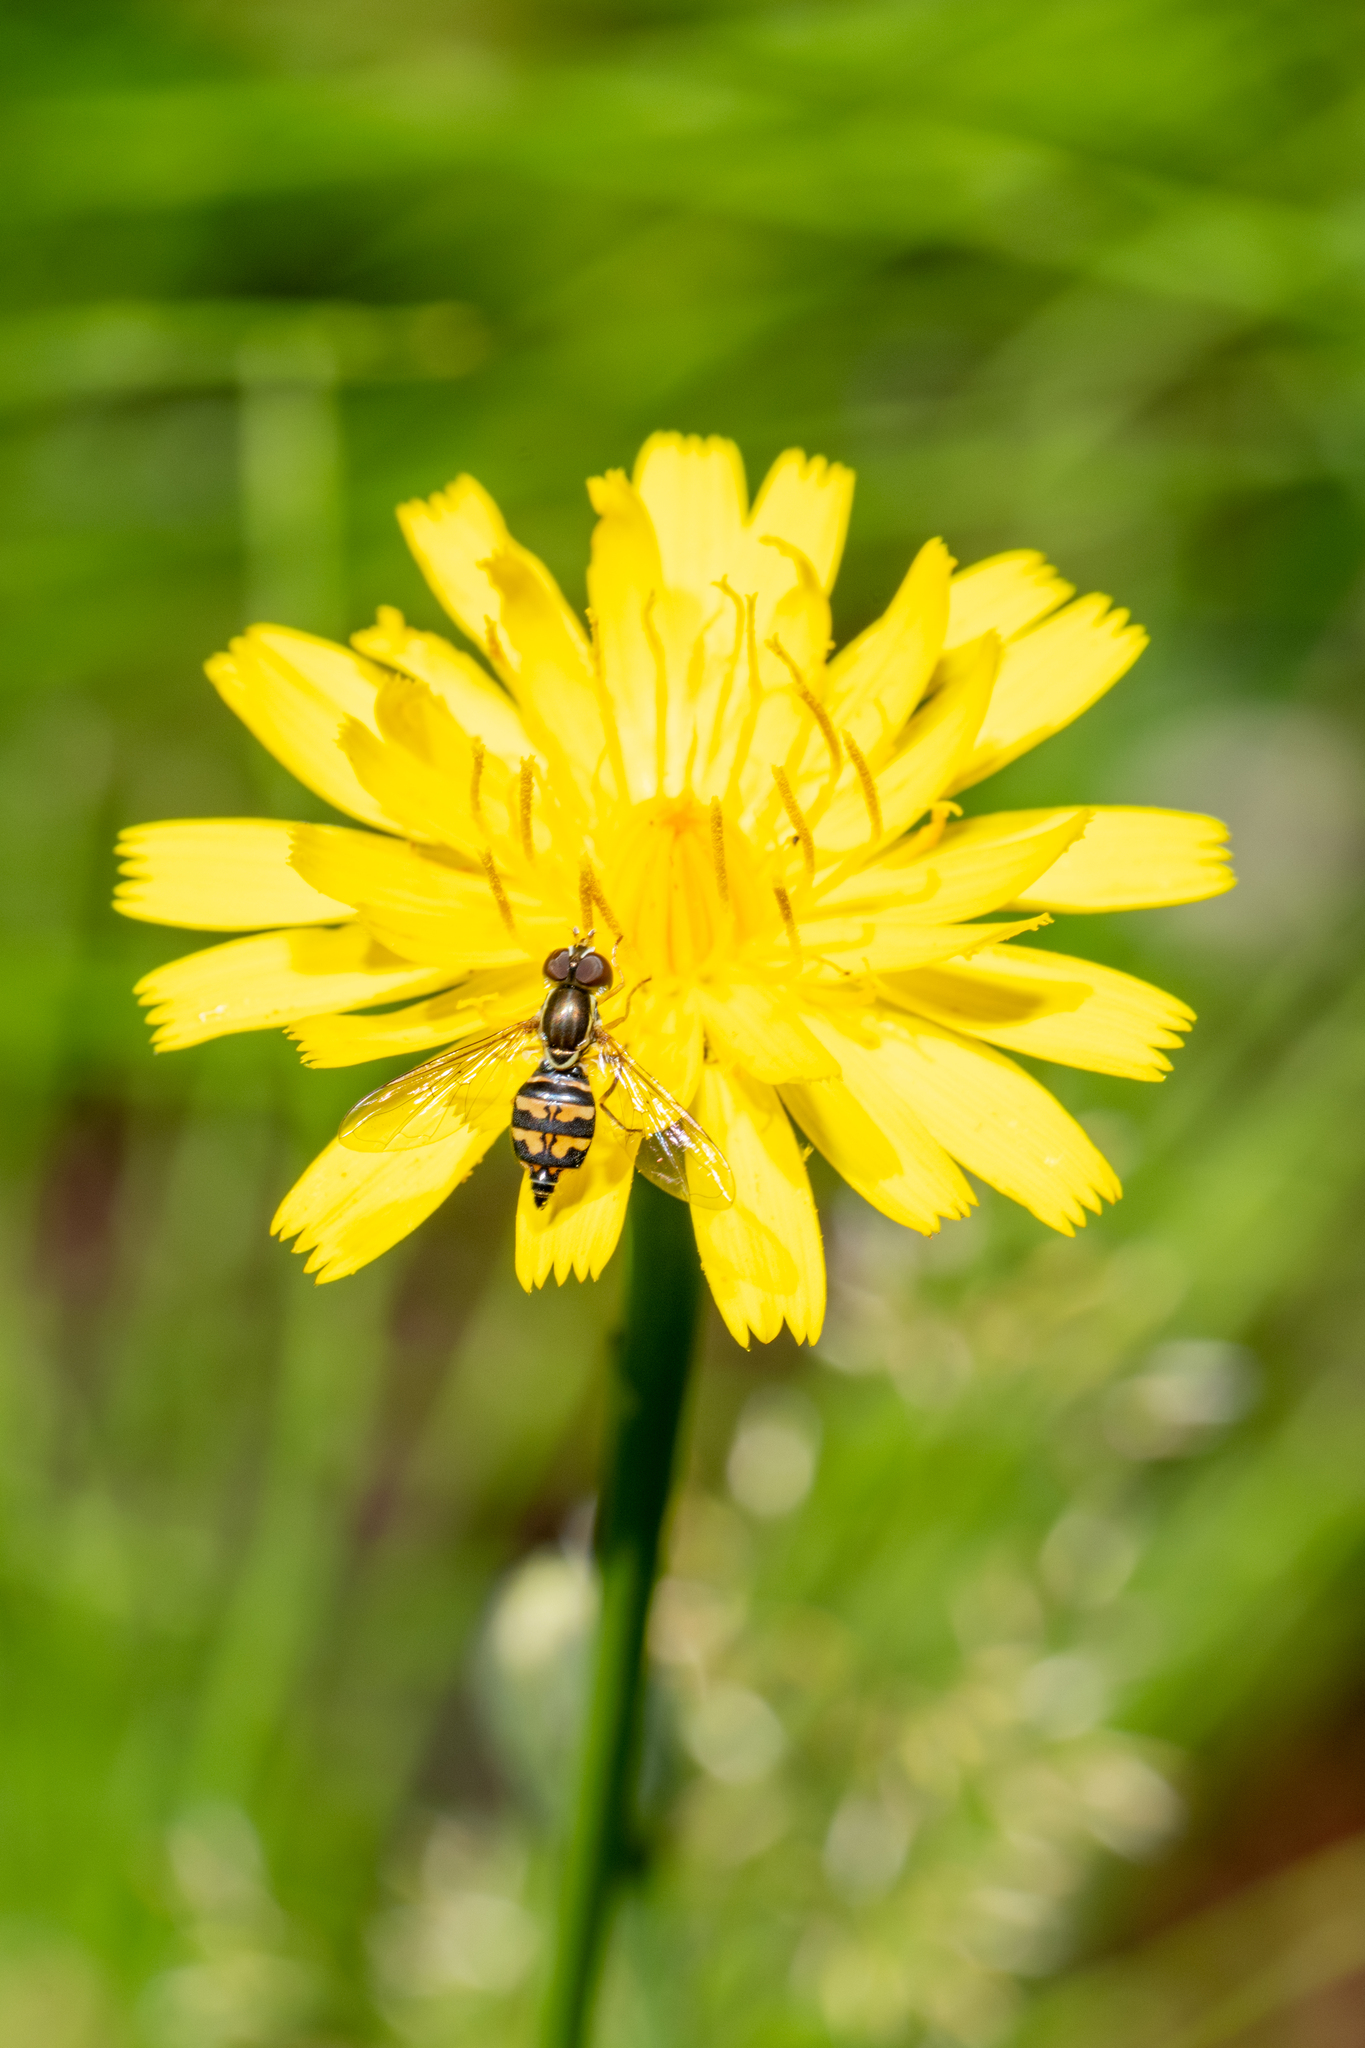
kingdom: Animalia
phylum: Arthropoda
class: Insecta
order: Diptera
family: Syrphidae
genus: Toxomerus
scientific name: Toxomerus occidentalis
